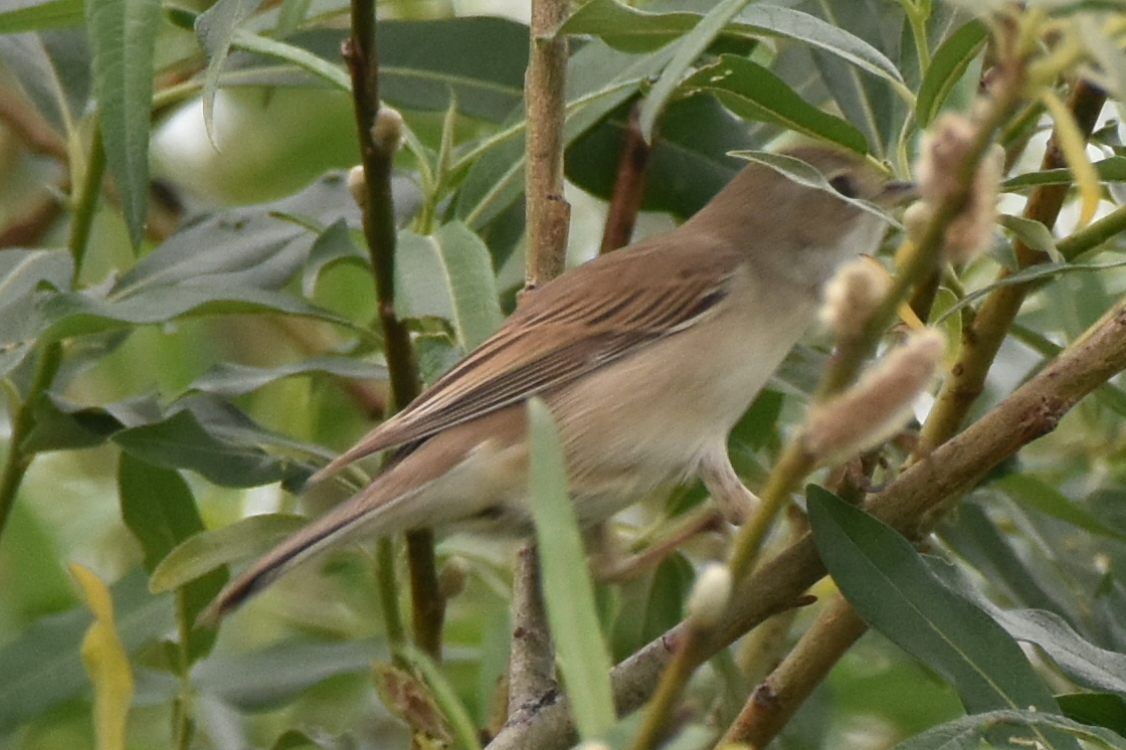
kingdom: Animalia
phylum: Chordata
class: Aves
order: Passeriformes
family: Sylviidae
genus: Sylvia
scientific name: Sylvia communis
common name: Common whitethroat
